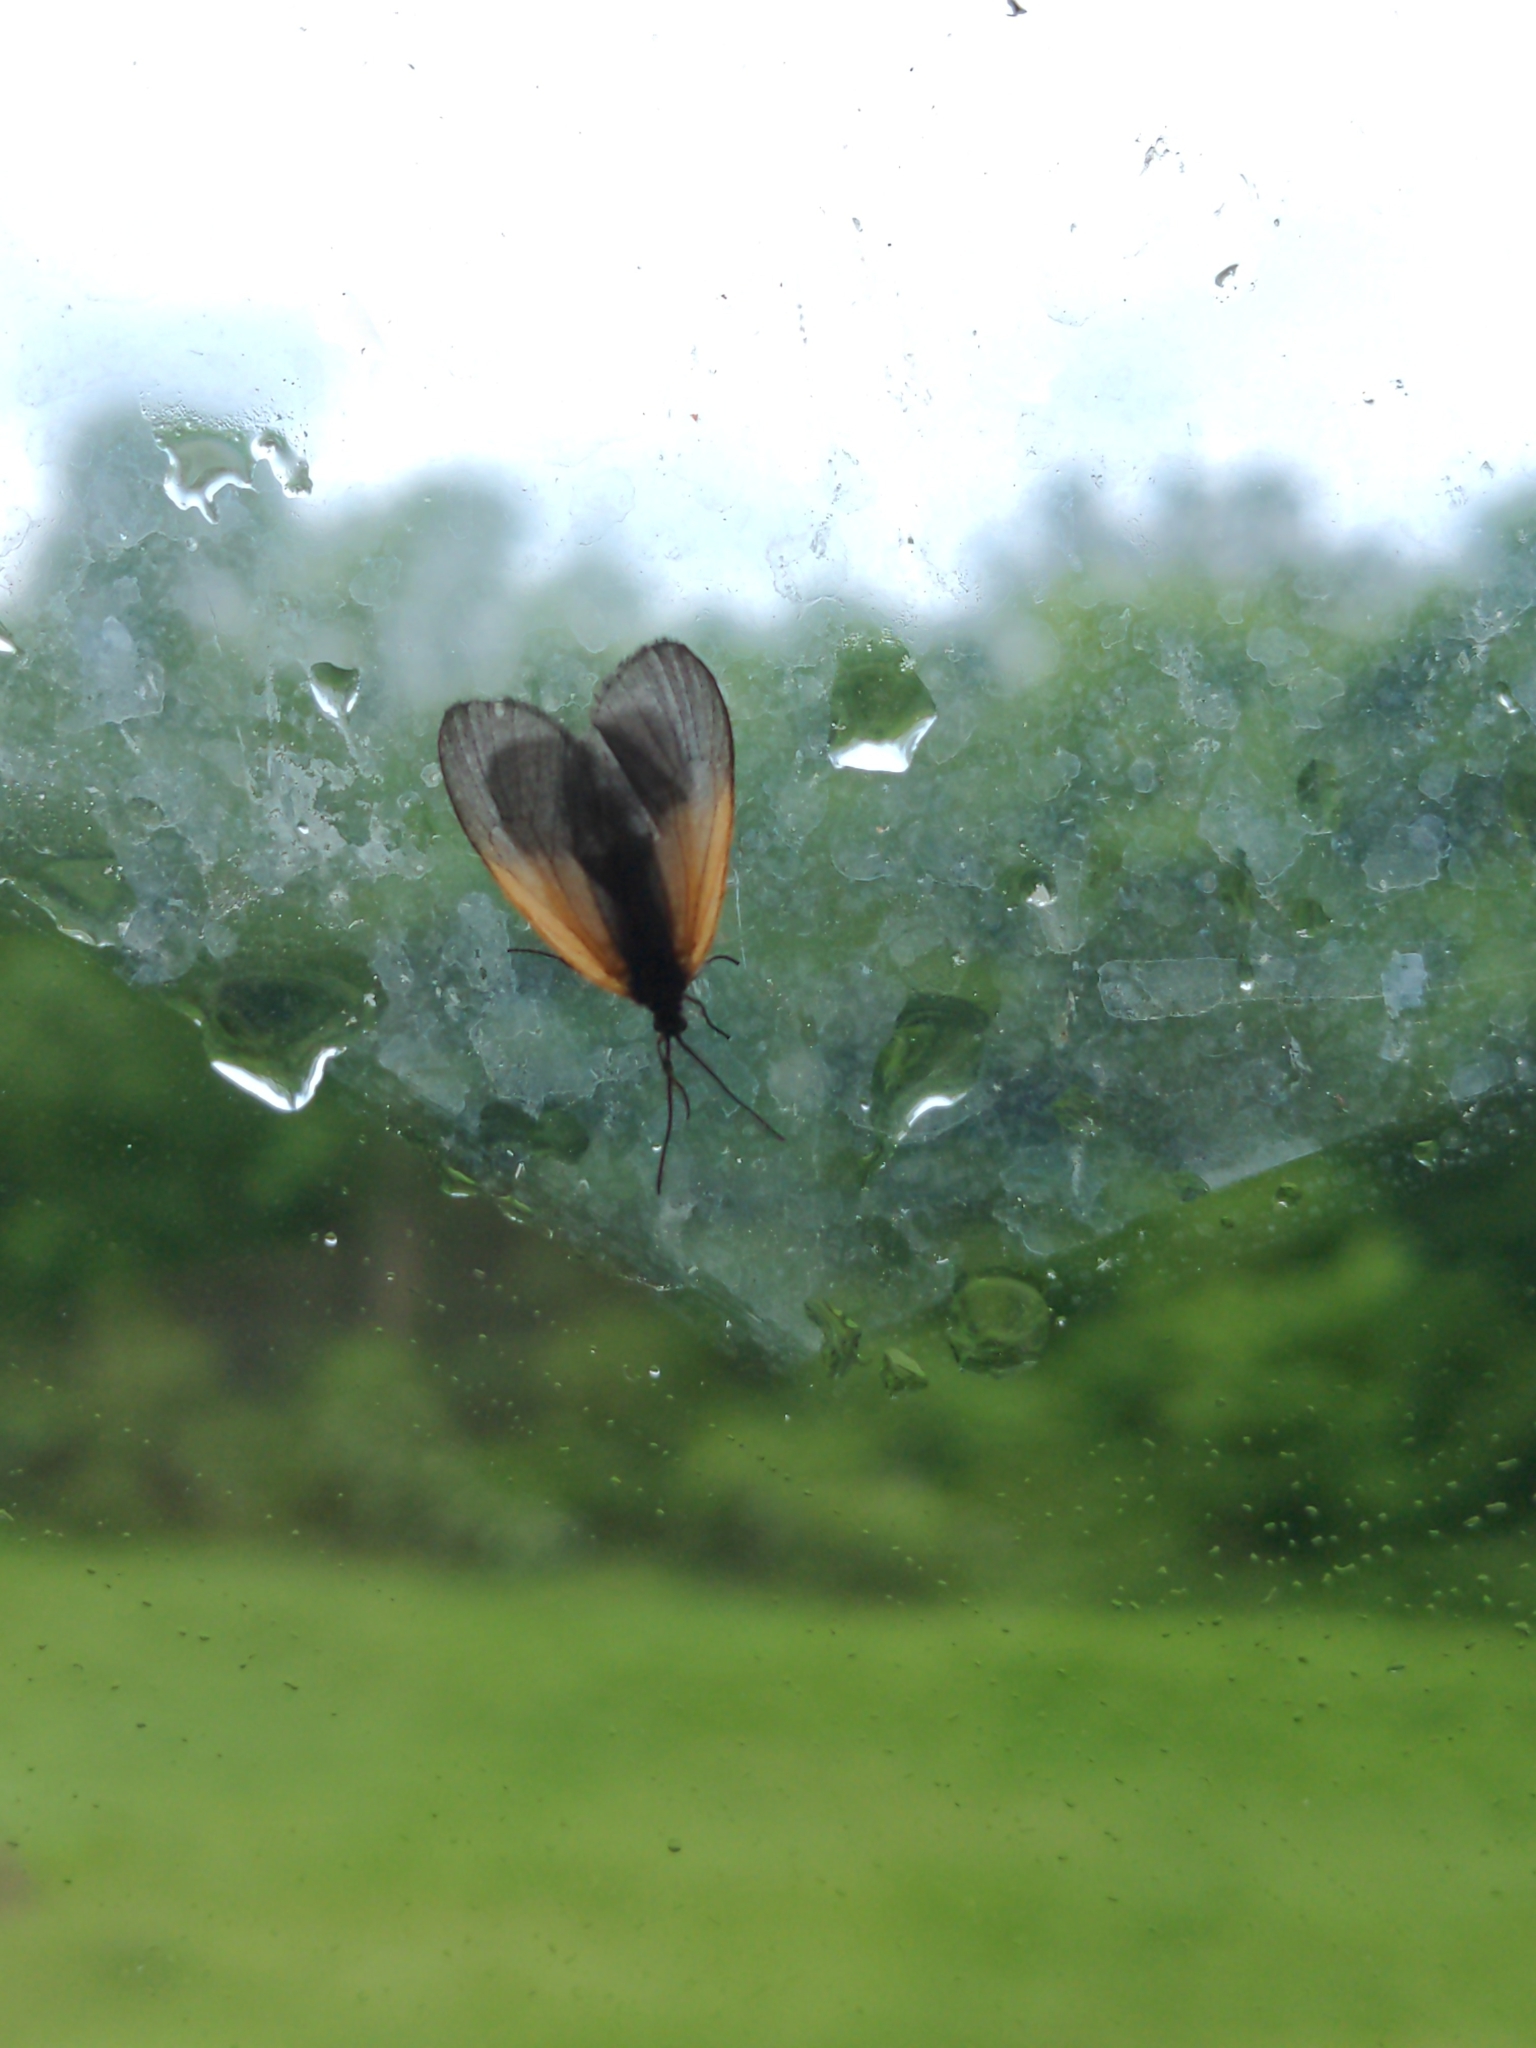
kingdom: Animalia
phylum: Arthropoda
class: Insecta
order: Lepidoptera
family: Zygaenidae
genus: Malthaca
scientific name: Malthaca dimidiata
